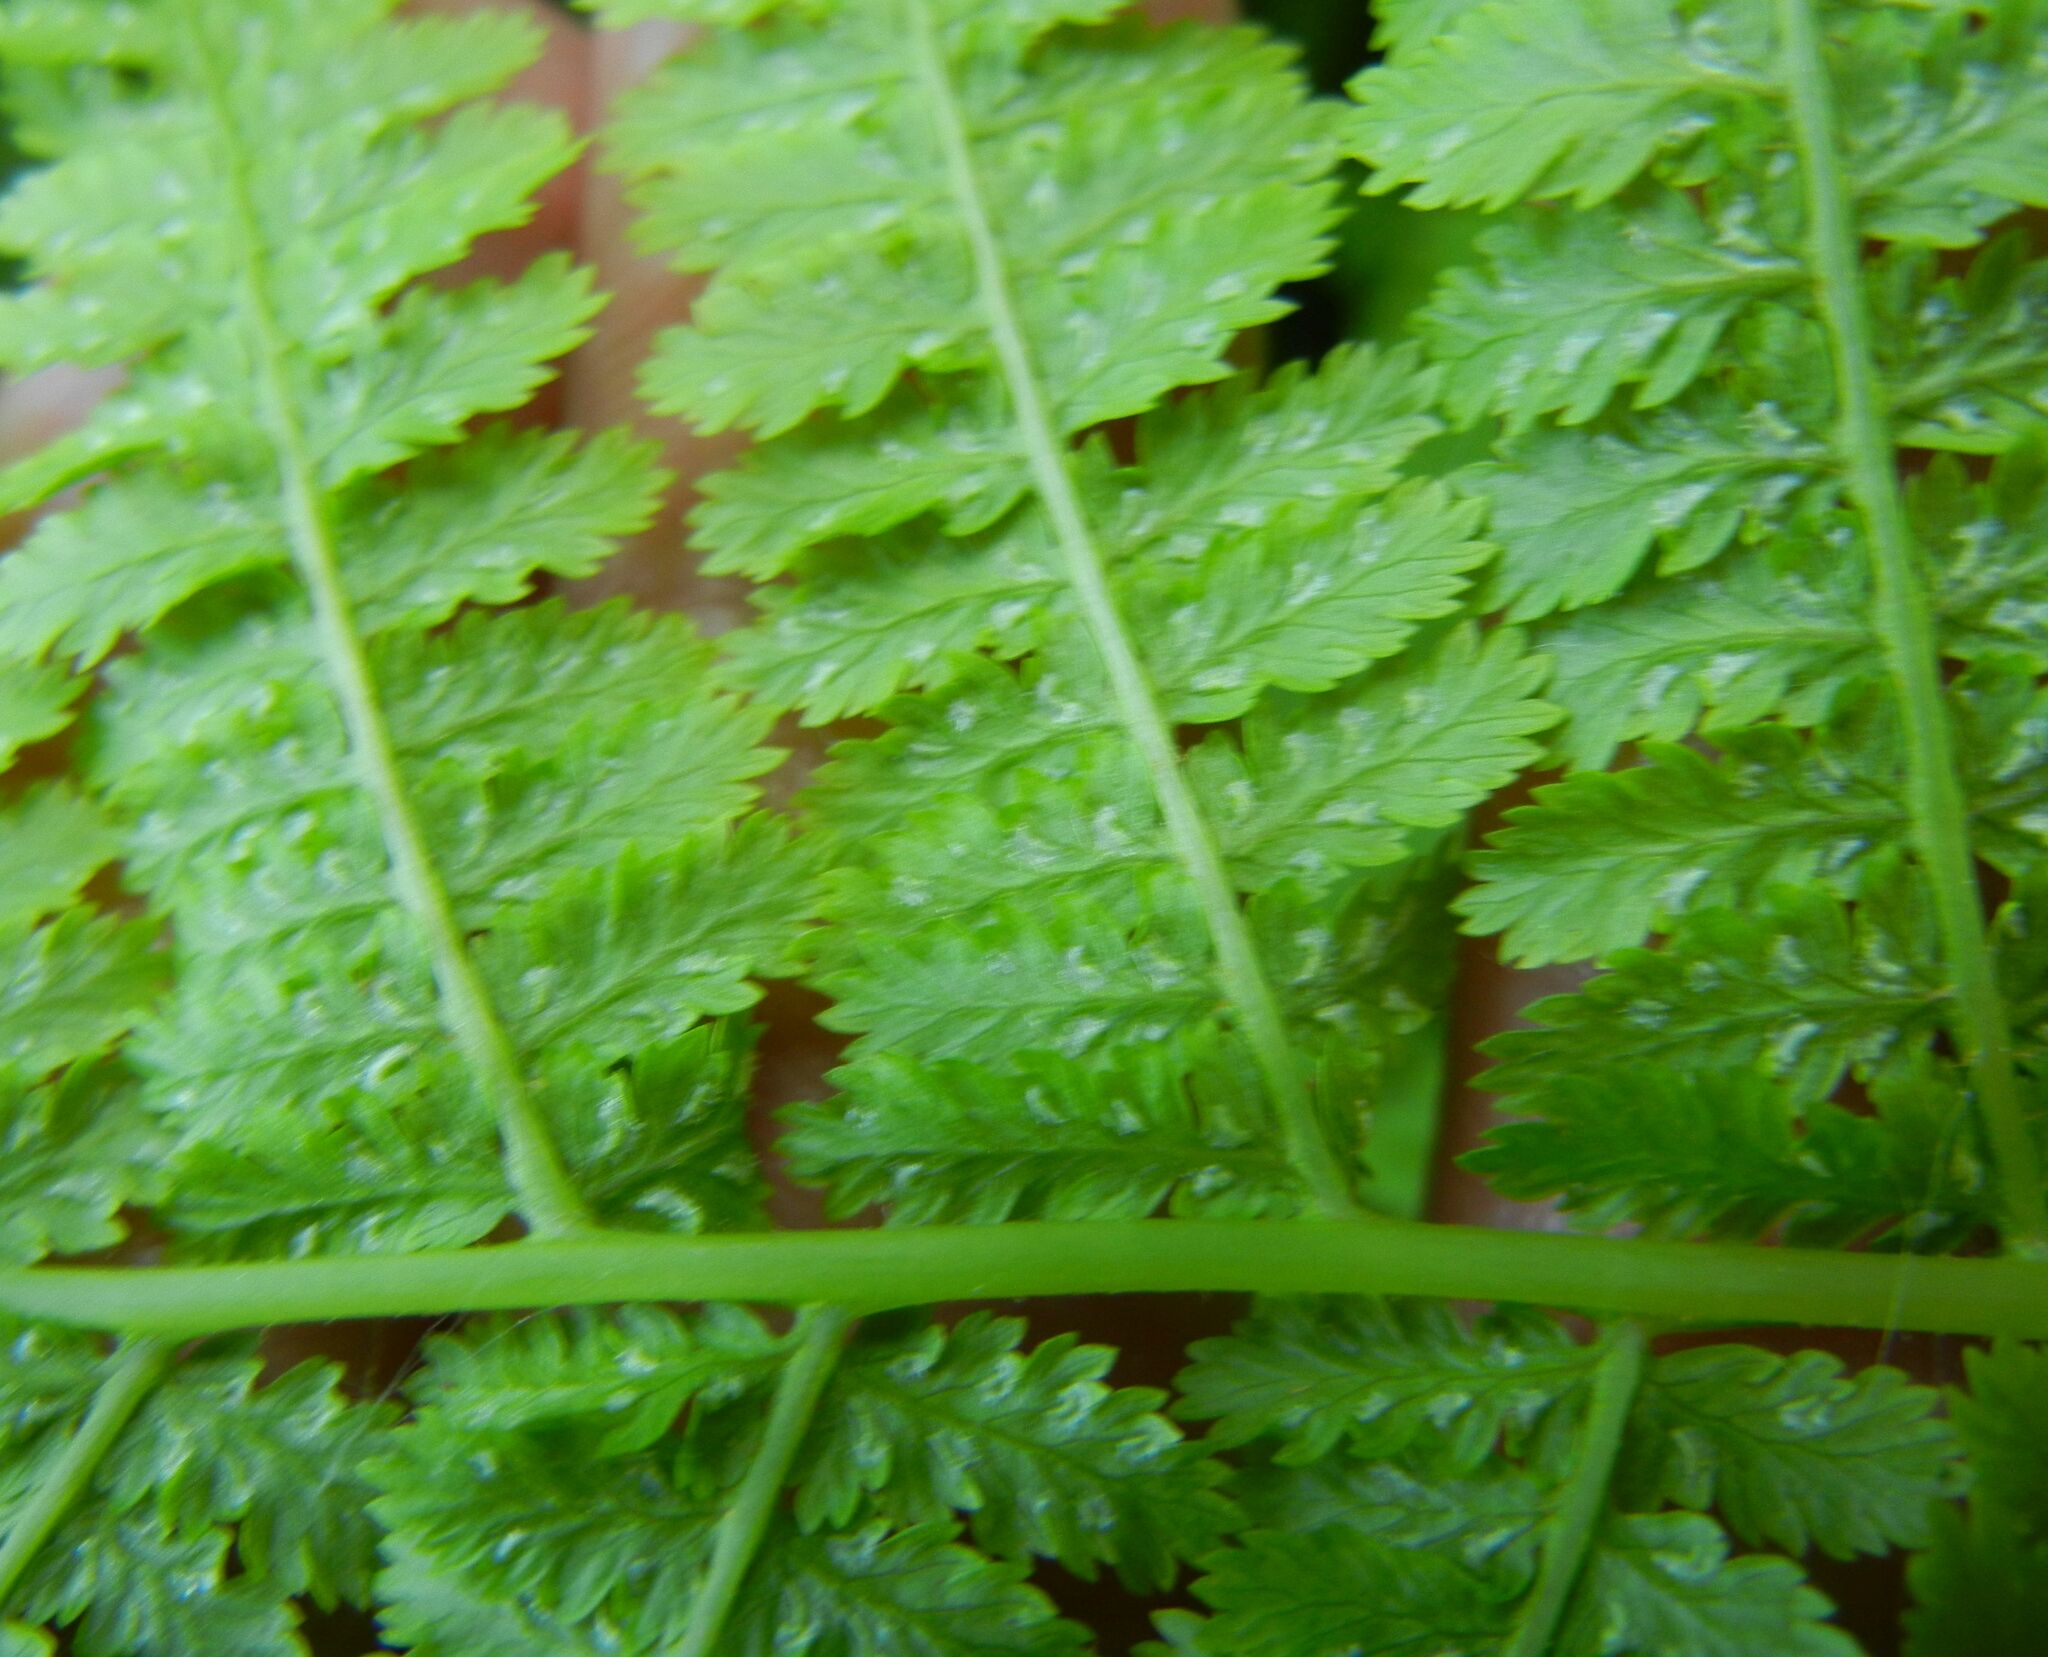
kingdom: Plantae
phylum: Tracheophyta
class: Polypodiopsida
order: Polypodiales
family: Athyriaceae
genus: Athyrium
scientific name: Athyrium filix-femina
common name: Lady fern
